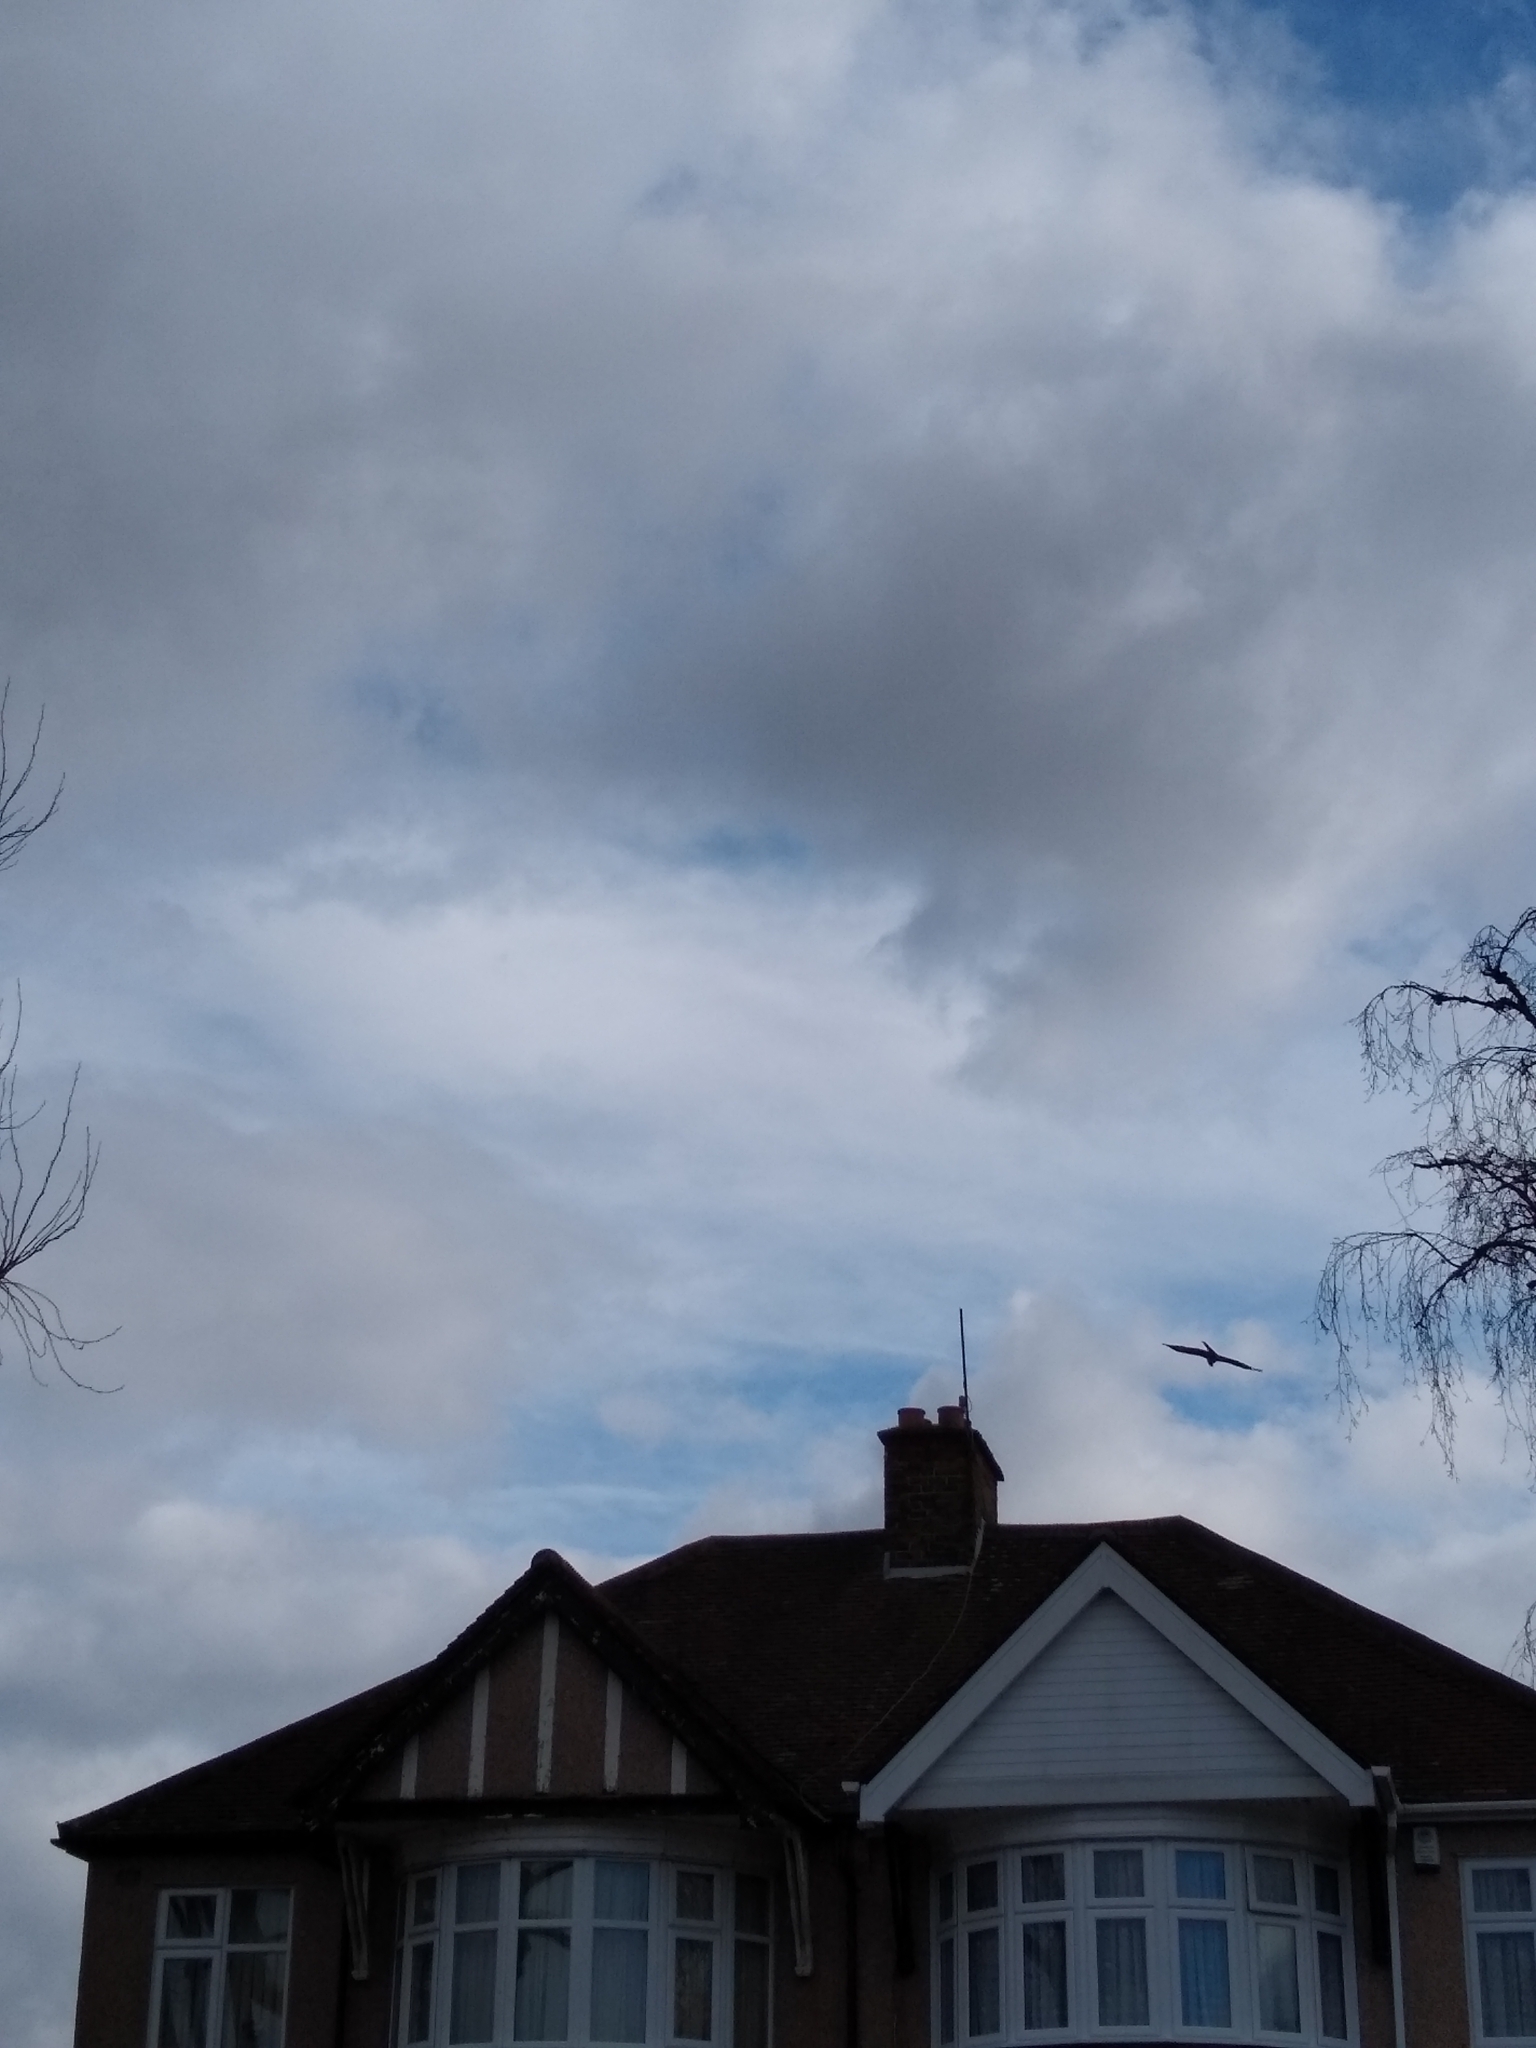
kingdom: Animalia
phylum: Chordata
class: Aves
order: Accipitriformes
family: Accipitridae
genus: Milvus
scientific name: Milvus milvus
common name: Red kite
